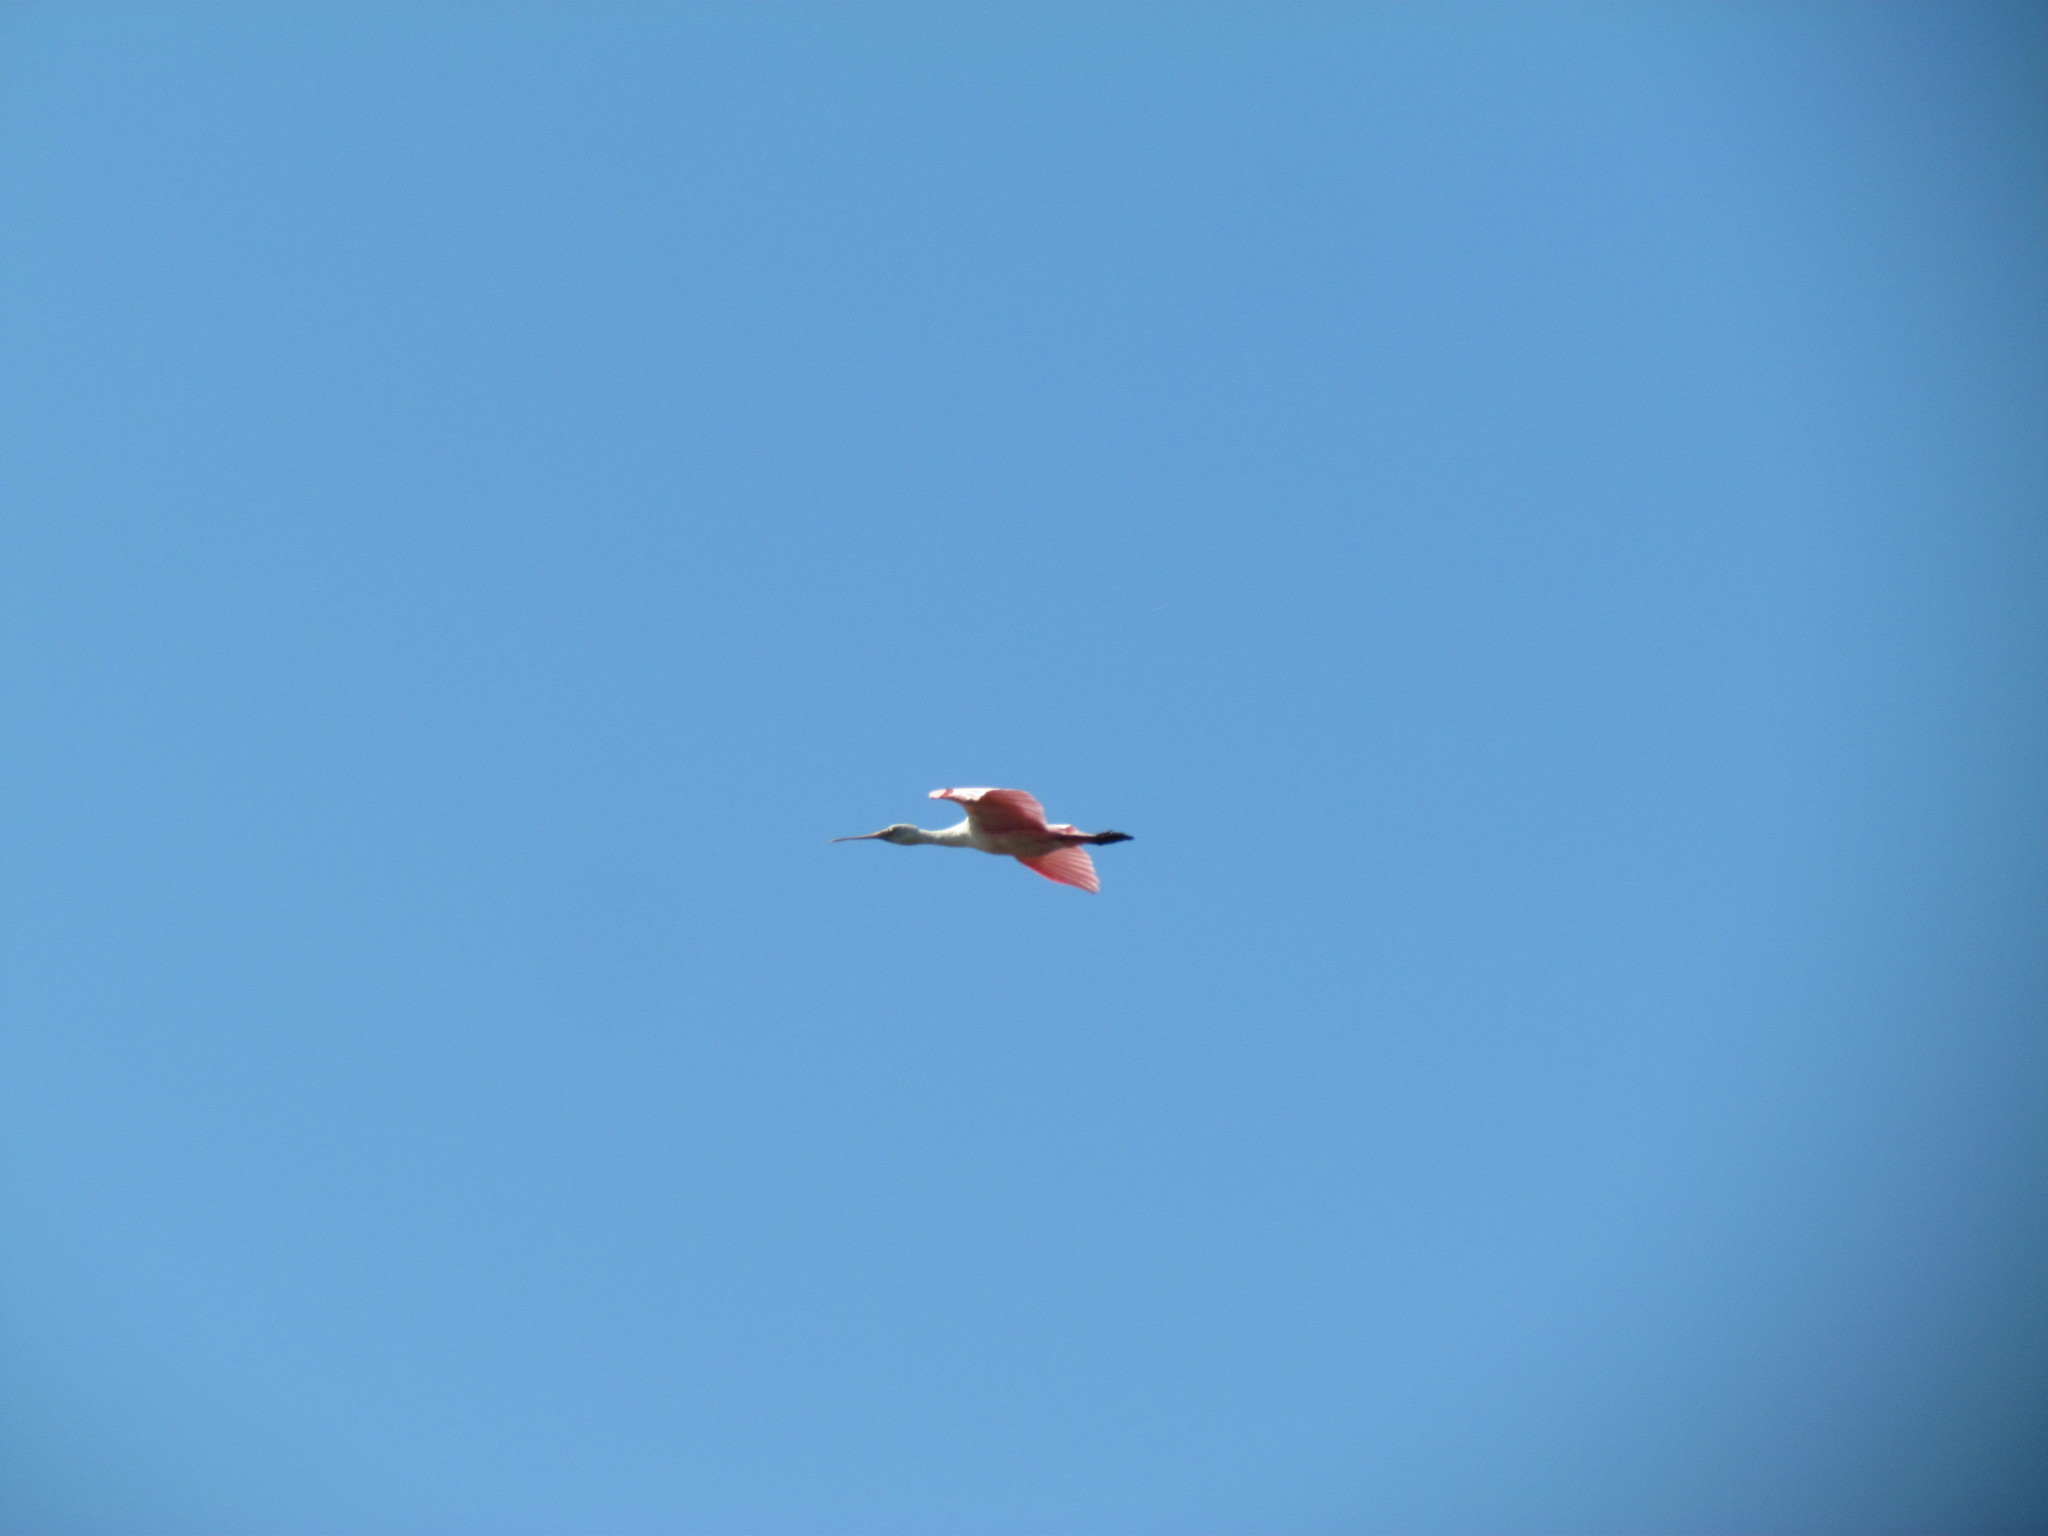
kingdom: Animalia
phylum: Chordata
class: Aves
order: Pelecaniformes
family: Threskiornithidae
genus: Platalea
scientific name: Platalea ajaja
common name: Roseate spoonbill
